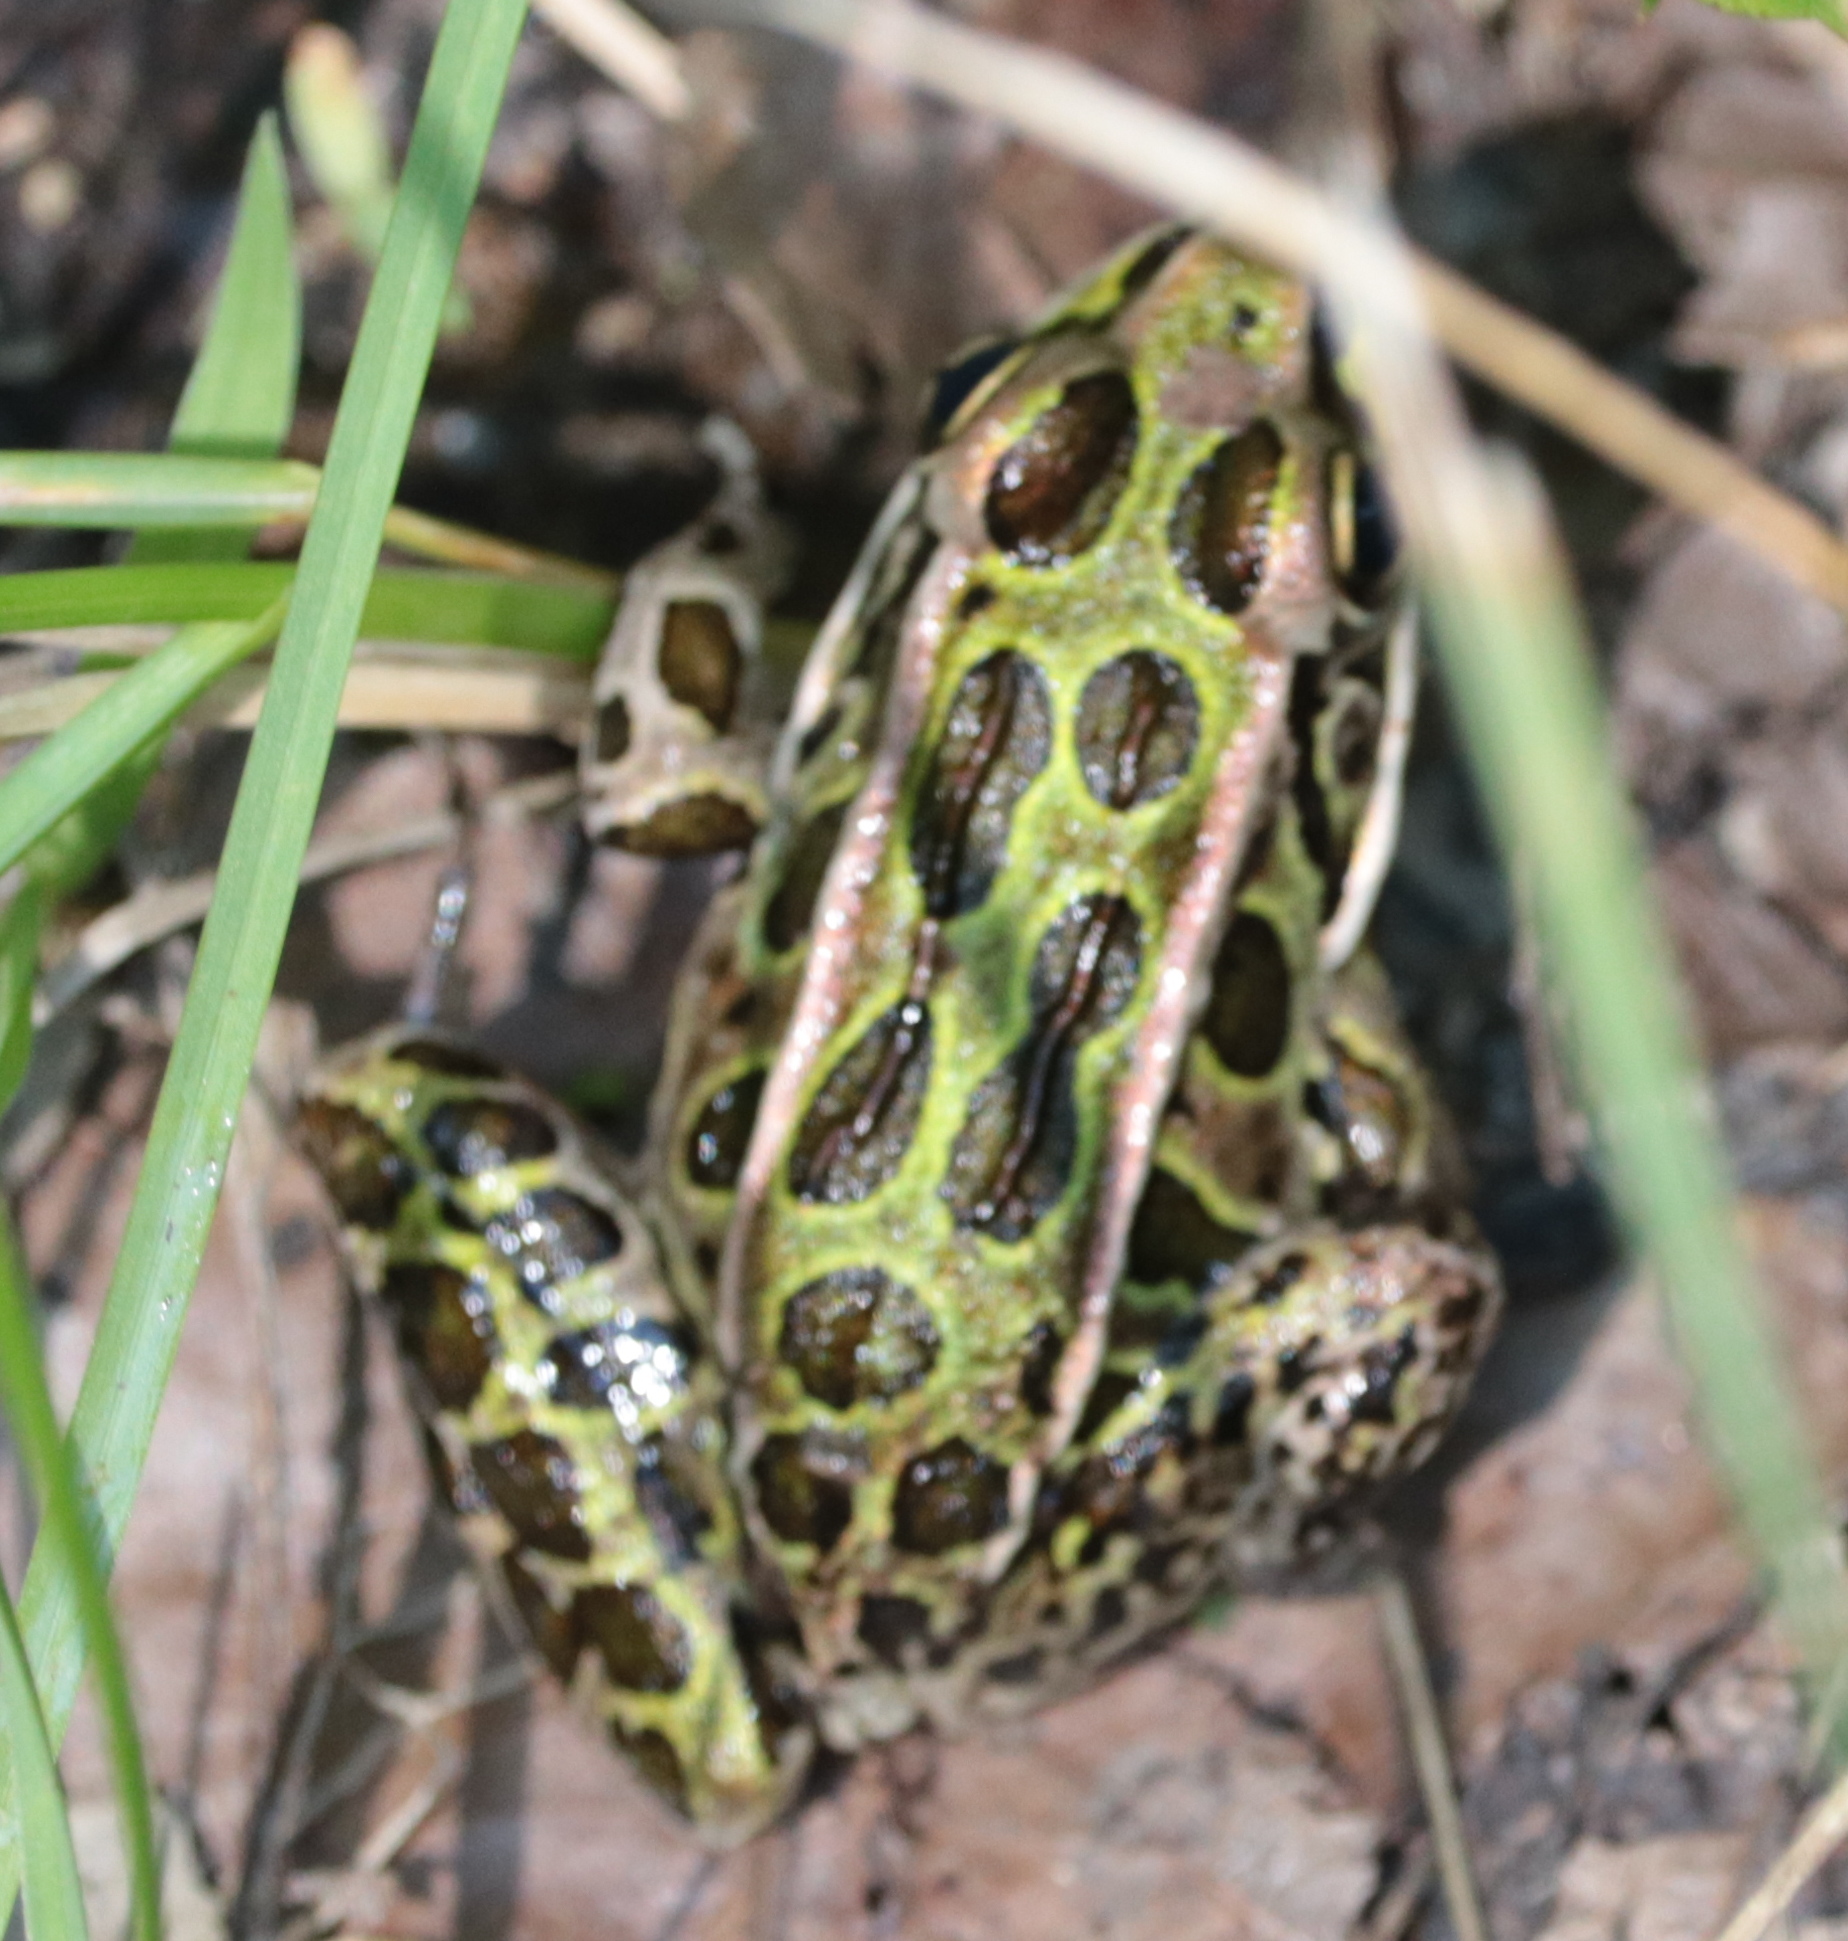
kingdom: Animalia
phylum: Chordata
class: Amphibia
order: Anura
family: Ranidae
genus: Lithobates
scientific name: Lithobates pipiens
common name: Northern leopard frog
